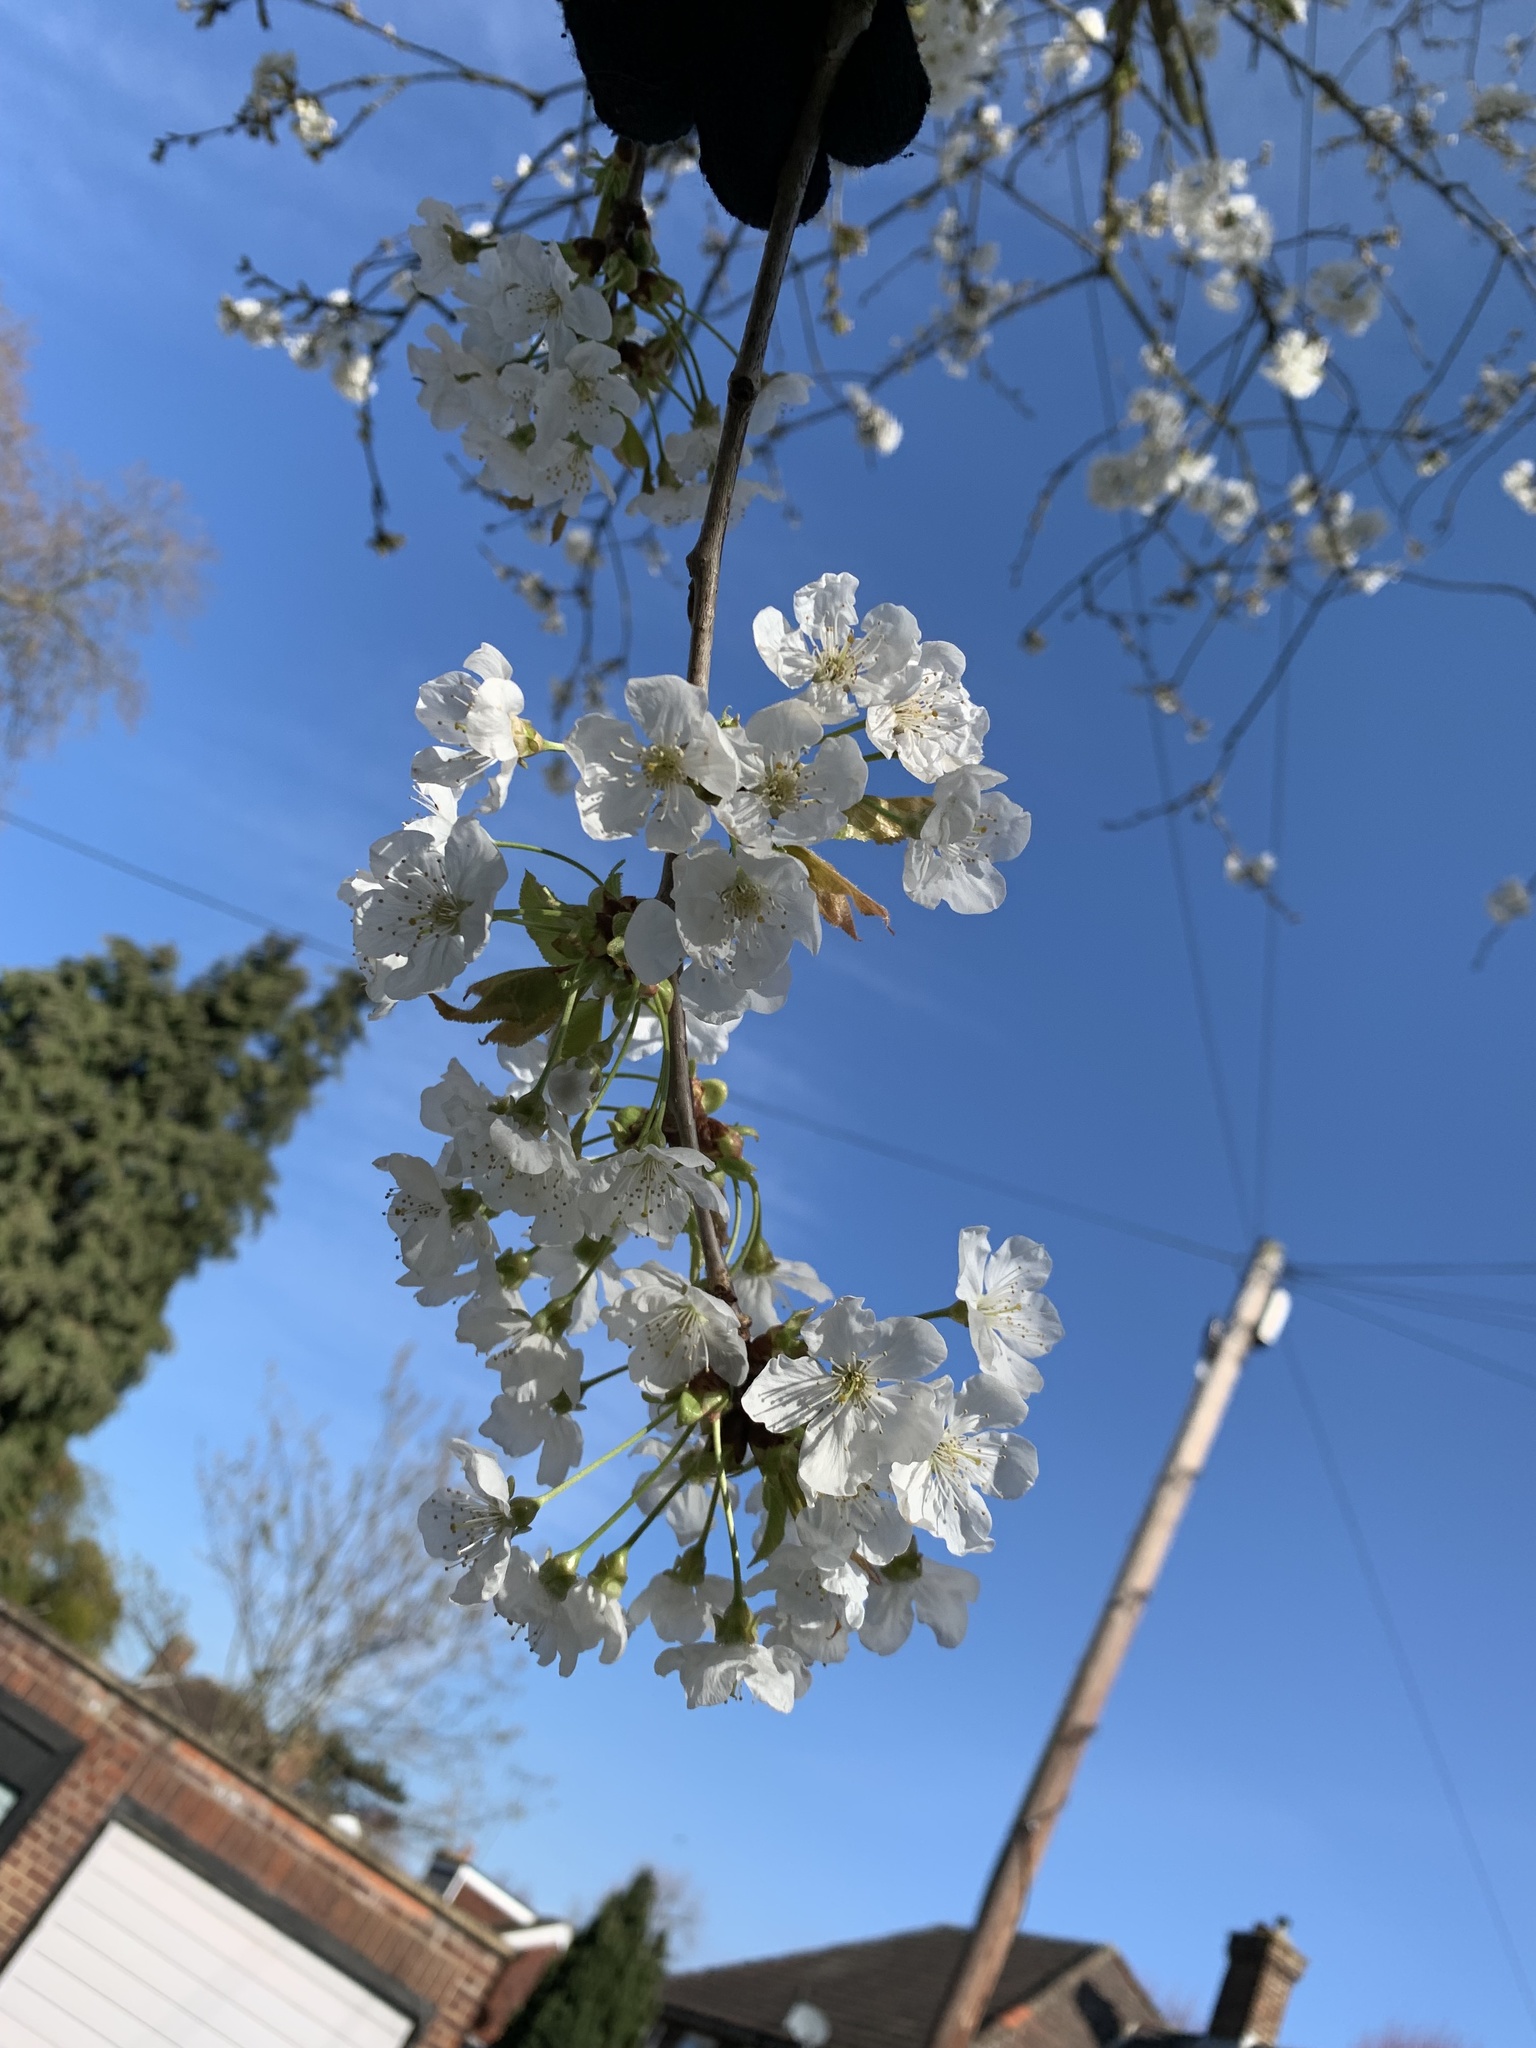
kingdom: Plantae
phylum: Tracheophyta
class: Magnoliopsida
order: Rosales
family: Rosaceae
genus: Prunus
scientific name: Prunus avium
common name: Sweet cherry
